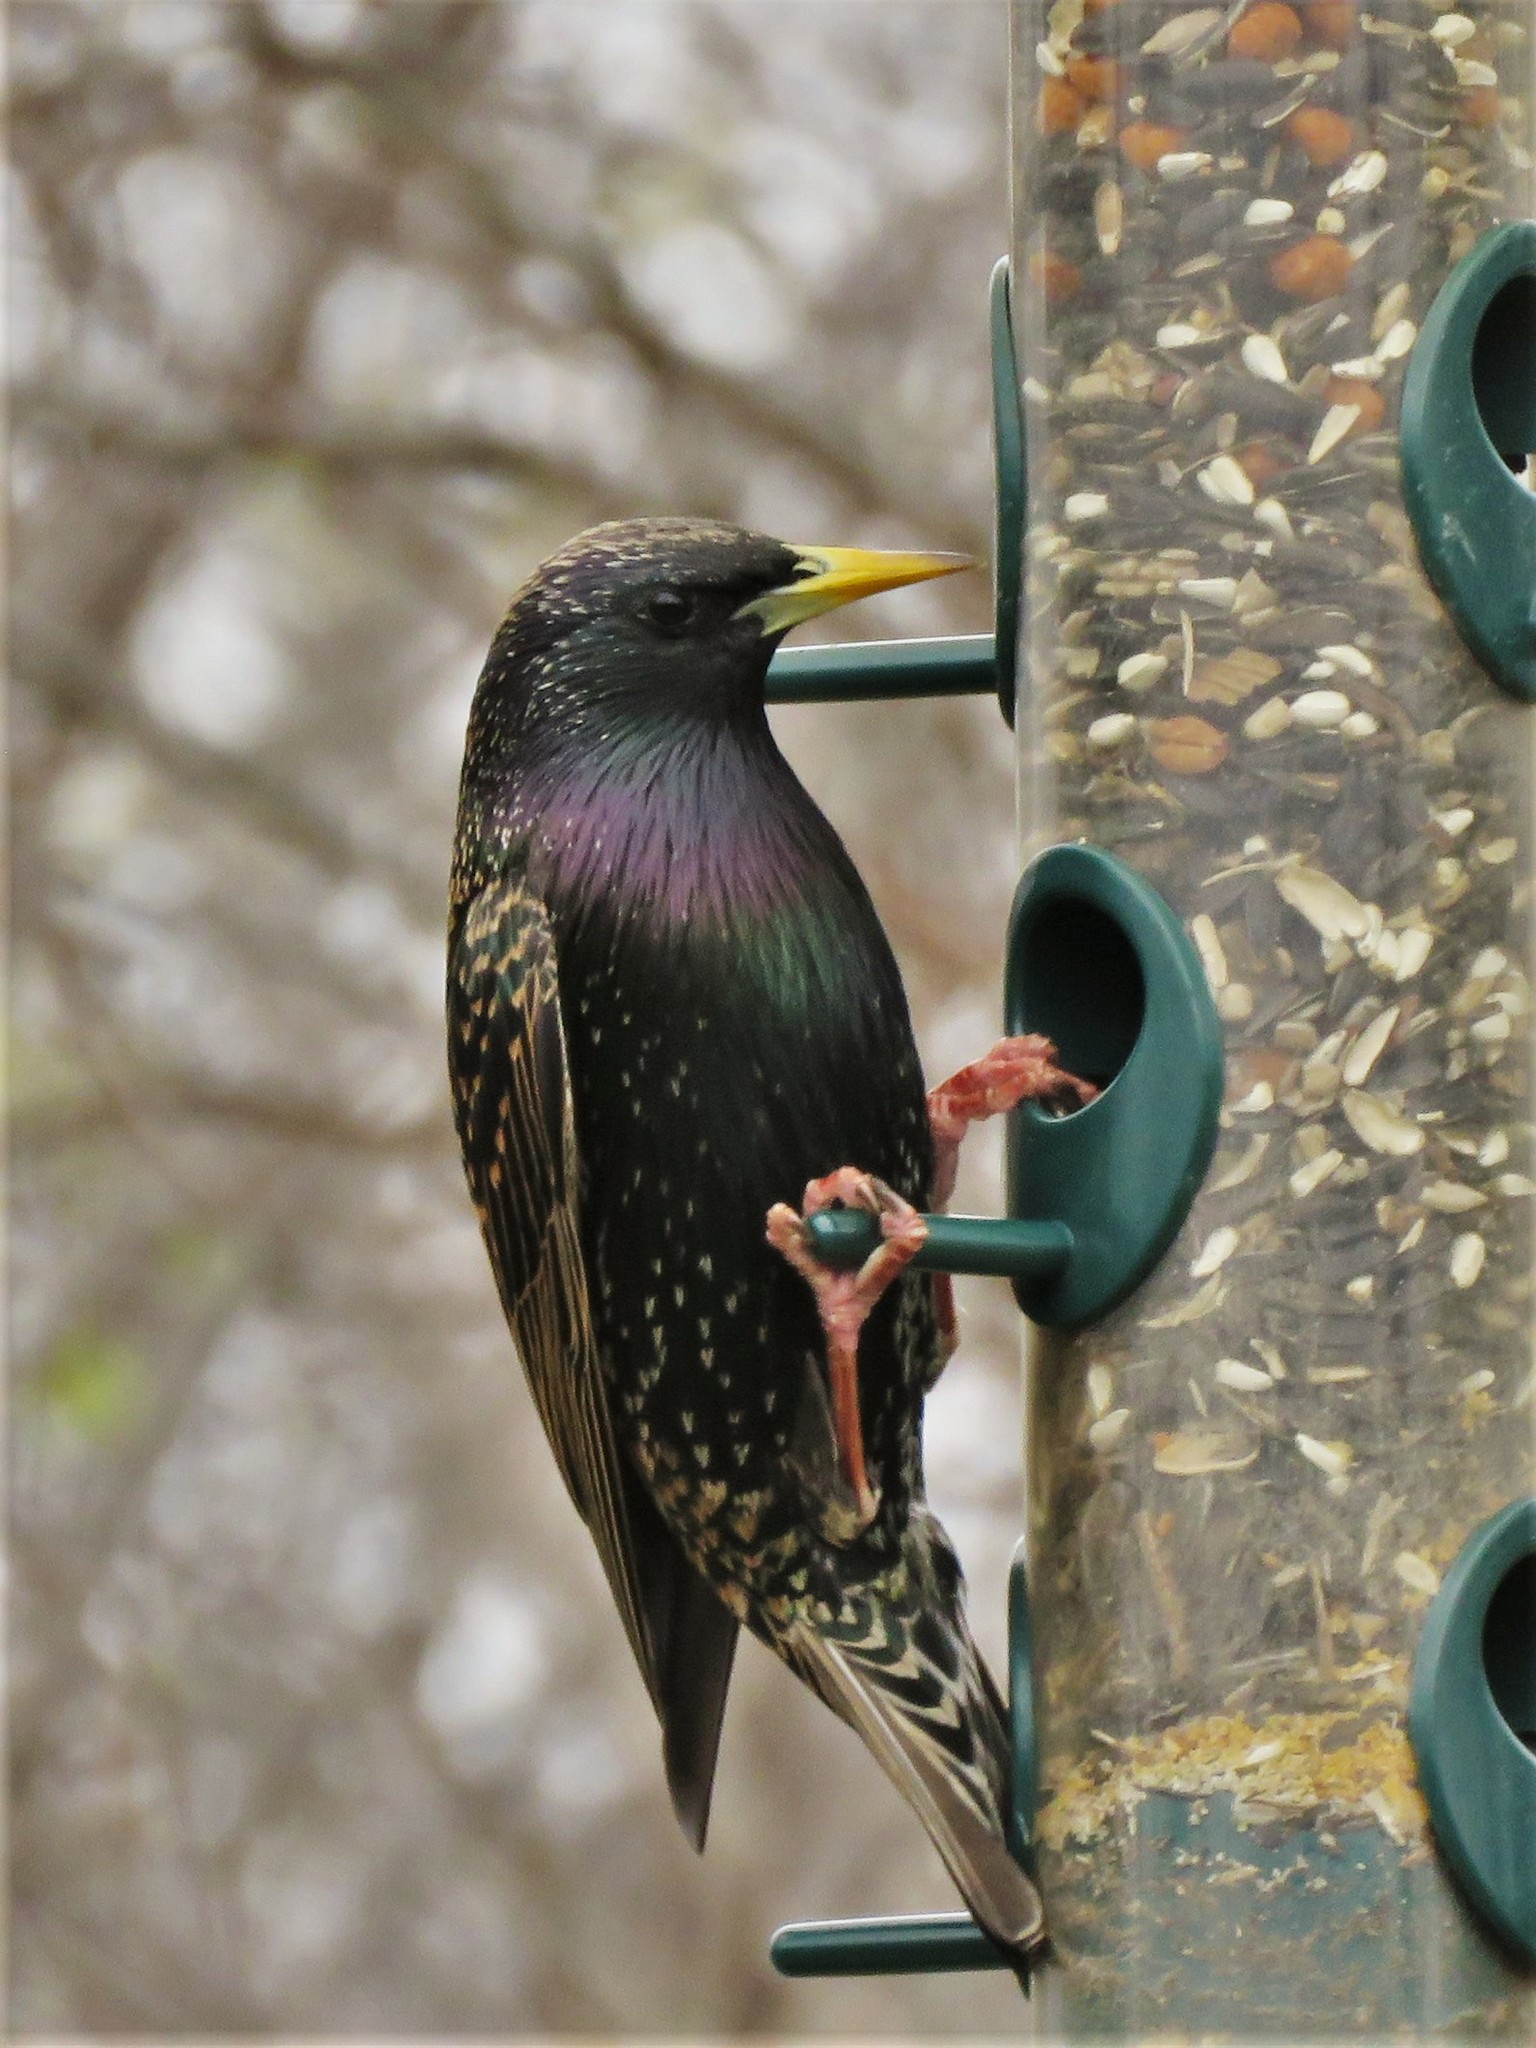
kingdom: Animalia
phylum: Chordata
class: Aves
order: Passeriformes
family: Sturnidae
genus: Sturnus
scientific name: Sturnus vulgaris
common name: Common starling
